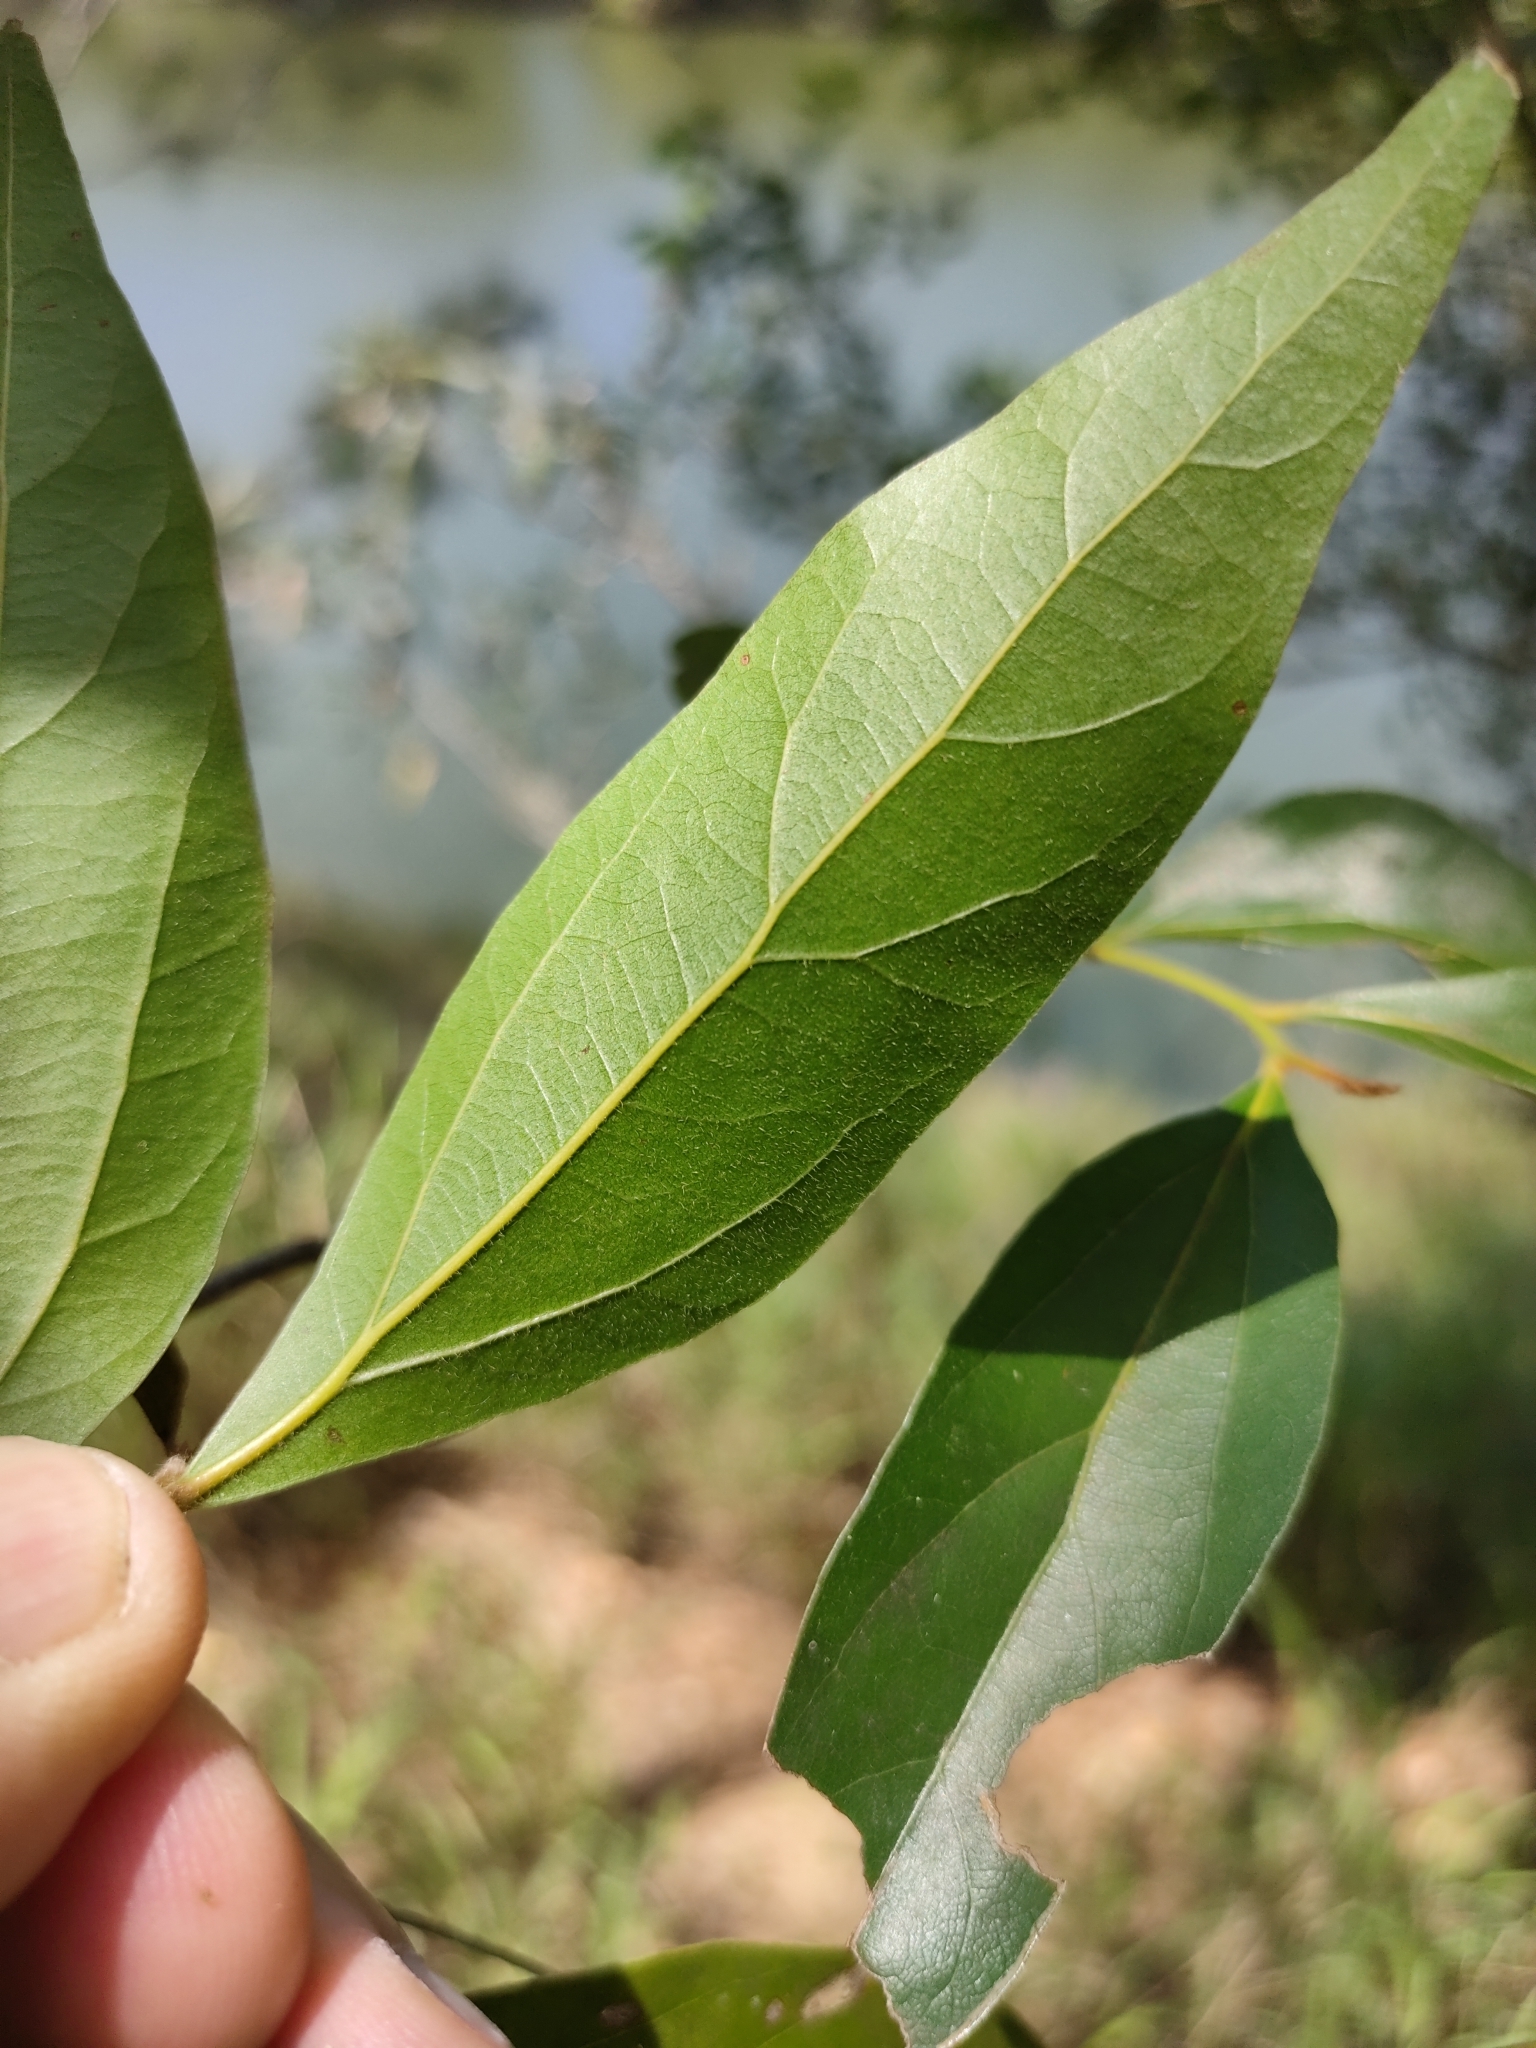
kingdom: Plantae
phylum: Tracheophyta
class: Magnoliopsida
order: Laurales
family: Lauraceae
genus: Cryptocarya
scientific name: Cryptocarya triplinervis
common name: Three-vein cryptocarya
